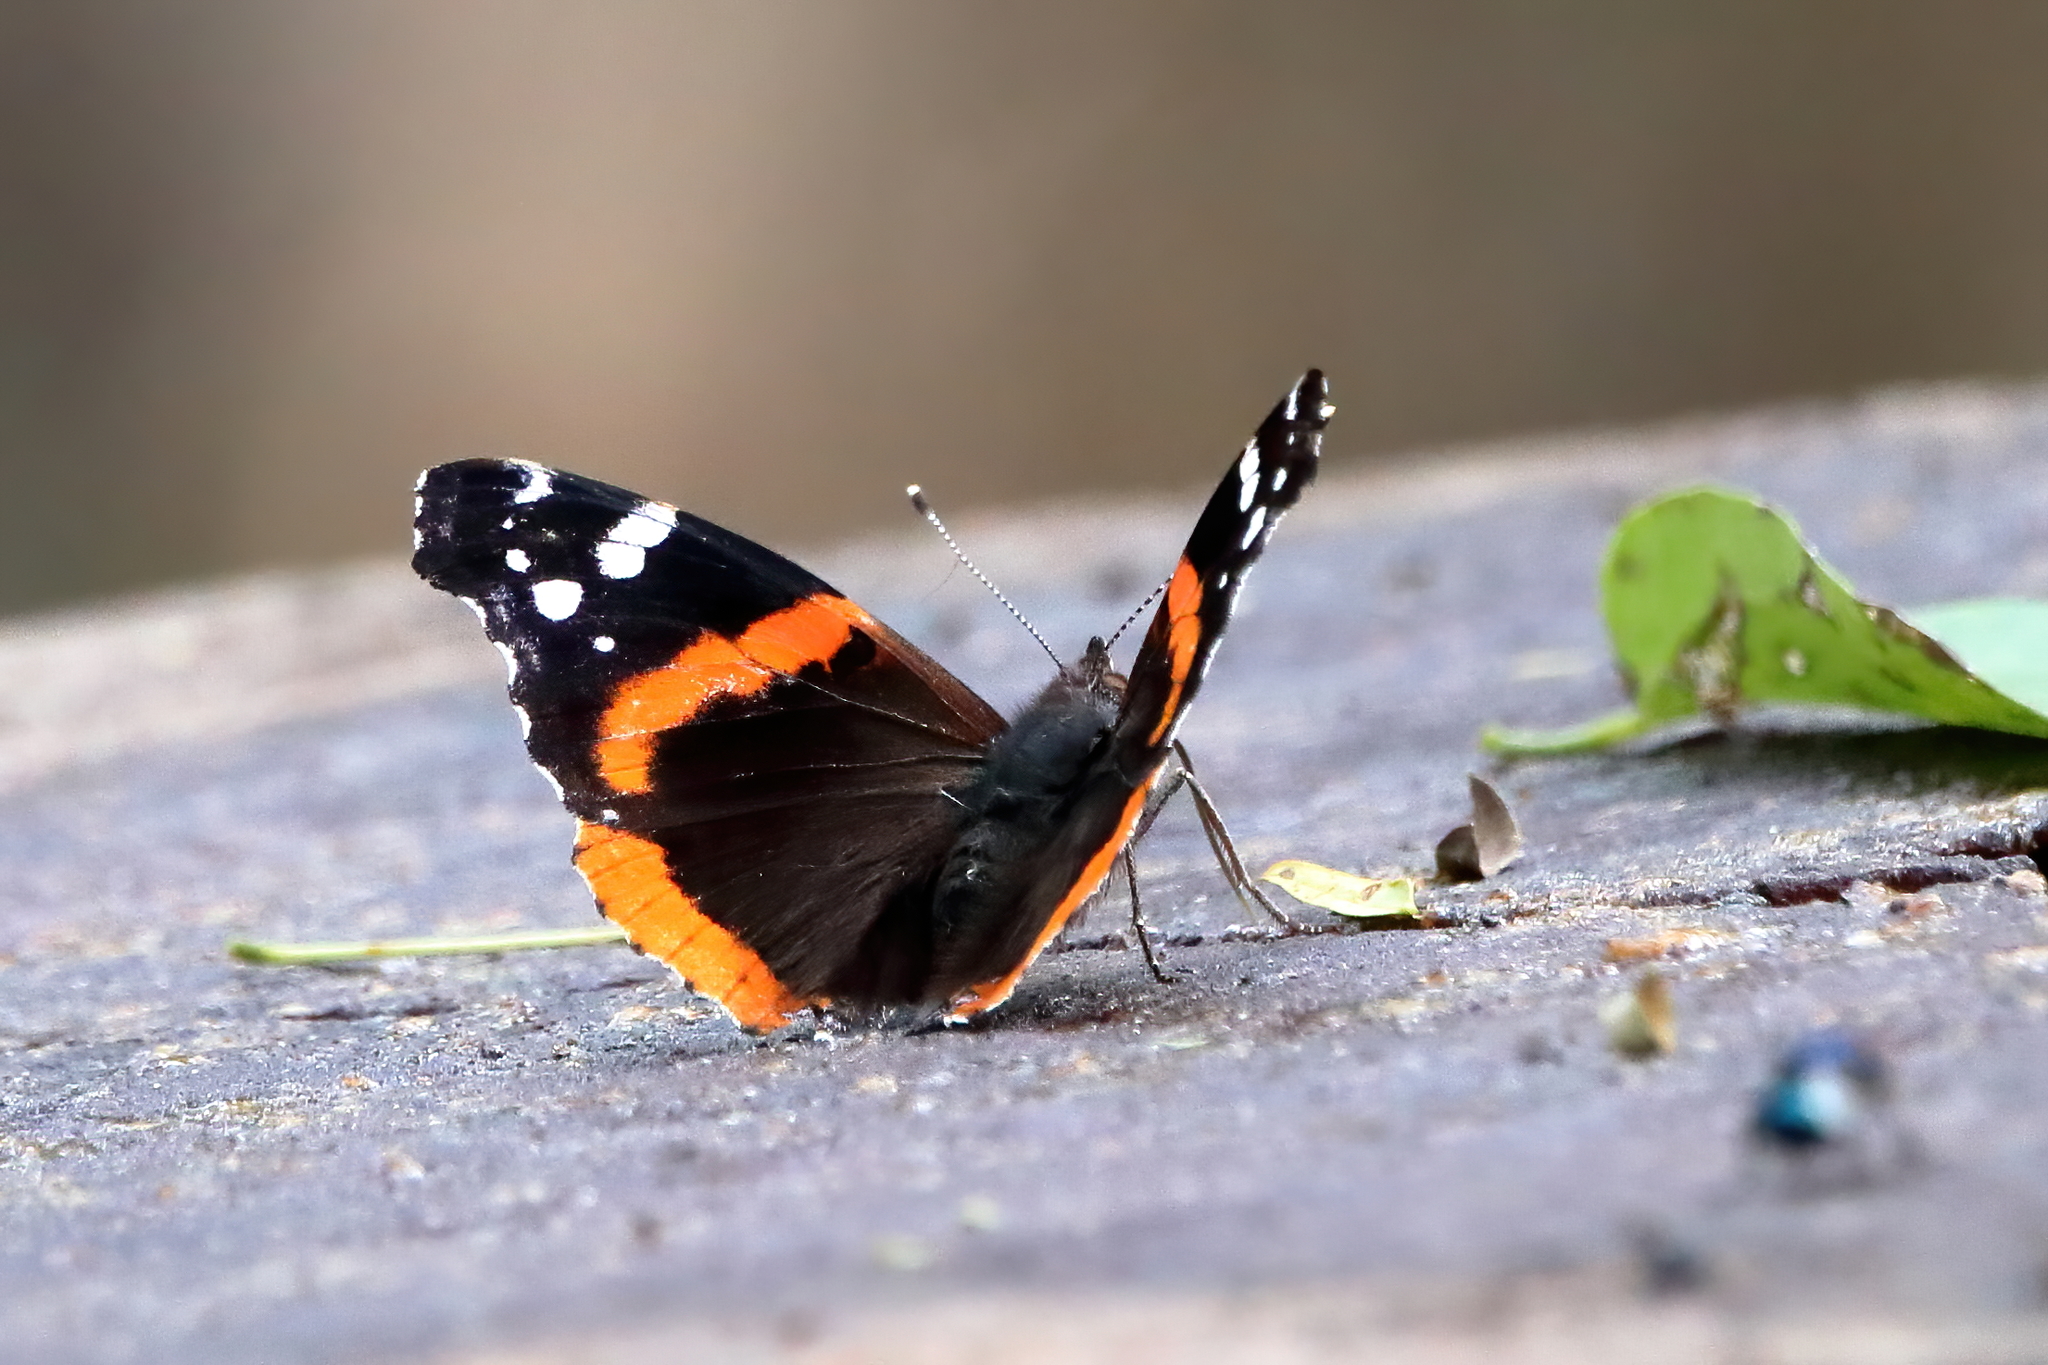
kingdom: Animalia
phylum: Arthropoda
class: Insecta
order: Lepidoptera
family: Nymphalidae
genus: Vanessa
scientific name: Vanessa atalanta
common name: Red admiral
